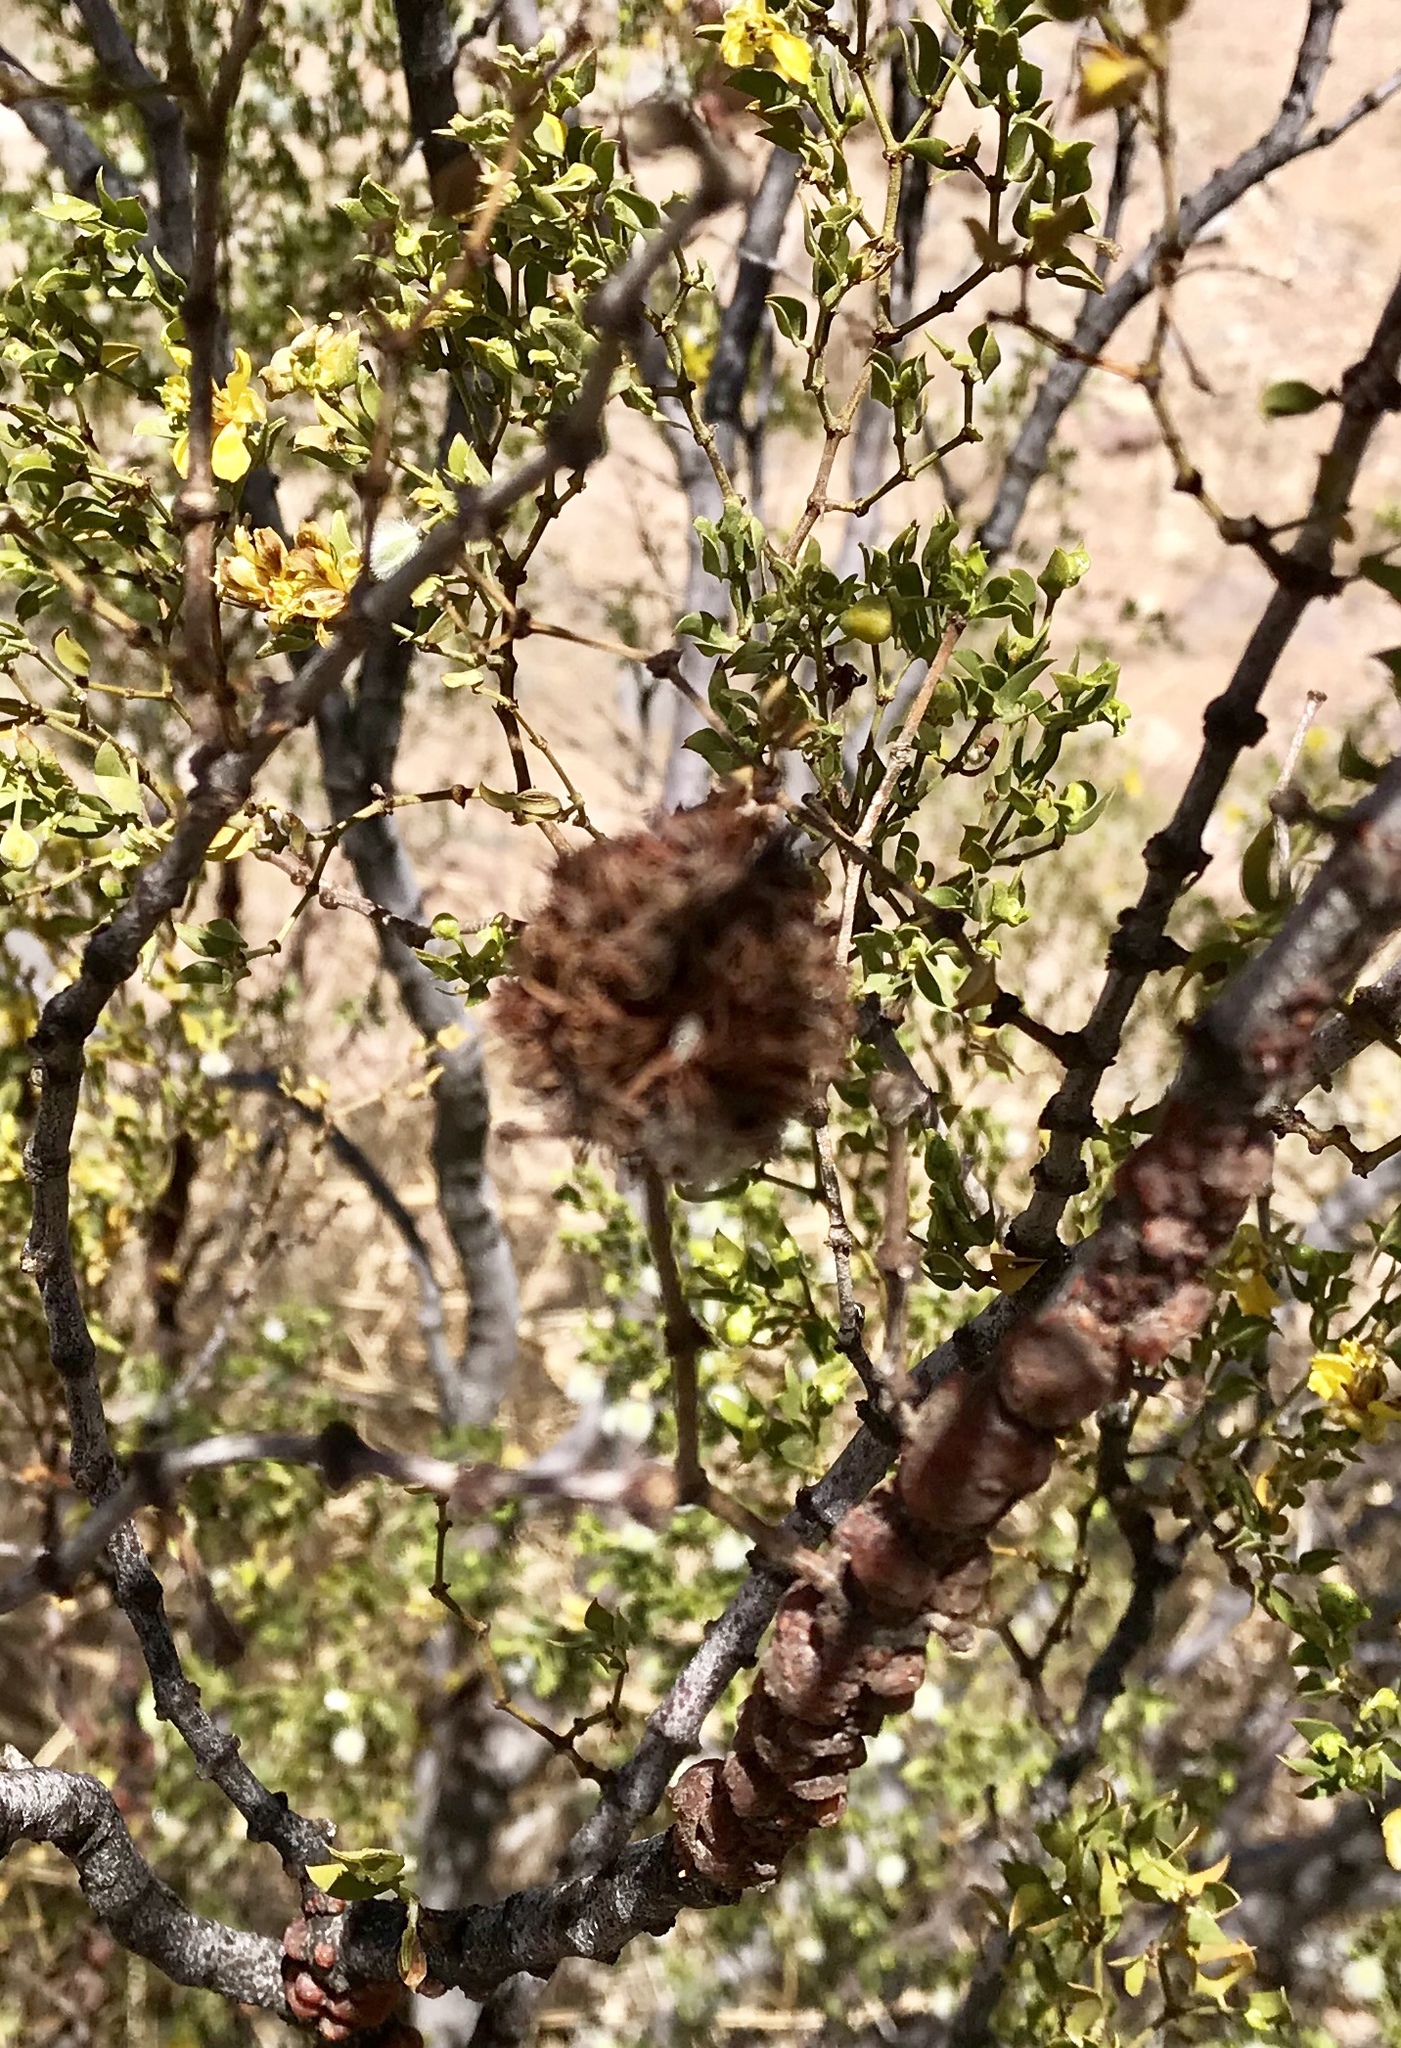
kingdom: Animalia
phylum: Arthropoda
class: Insecta
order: Diptera
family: Cecidomyiidae
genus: Asphondylia
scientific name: Asphondylia auripila
